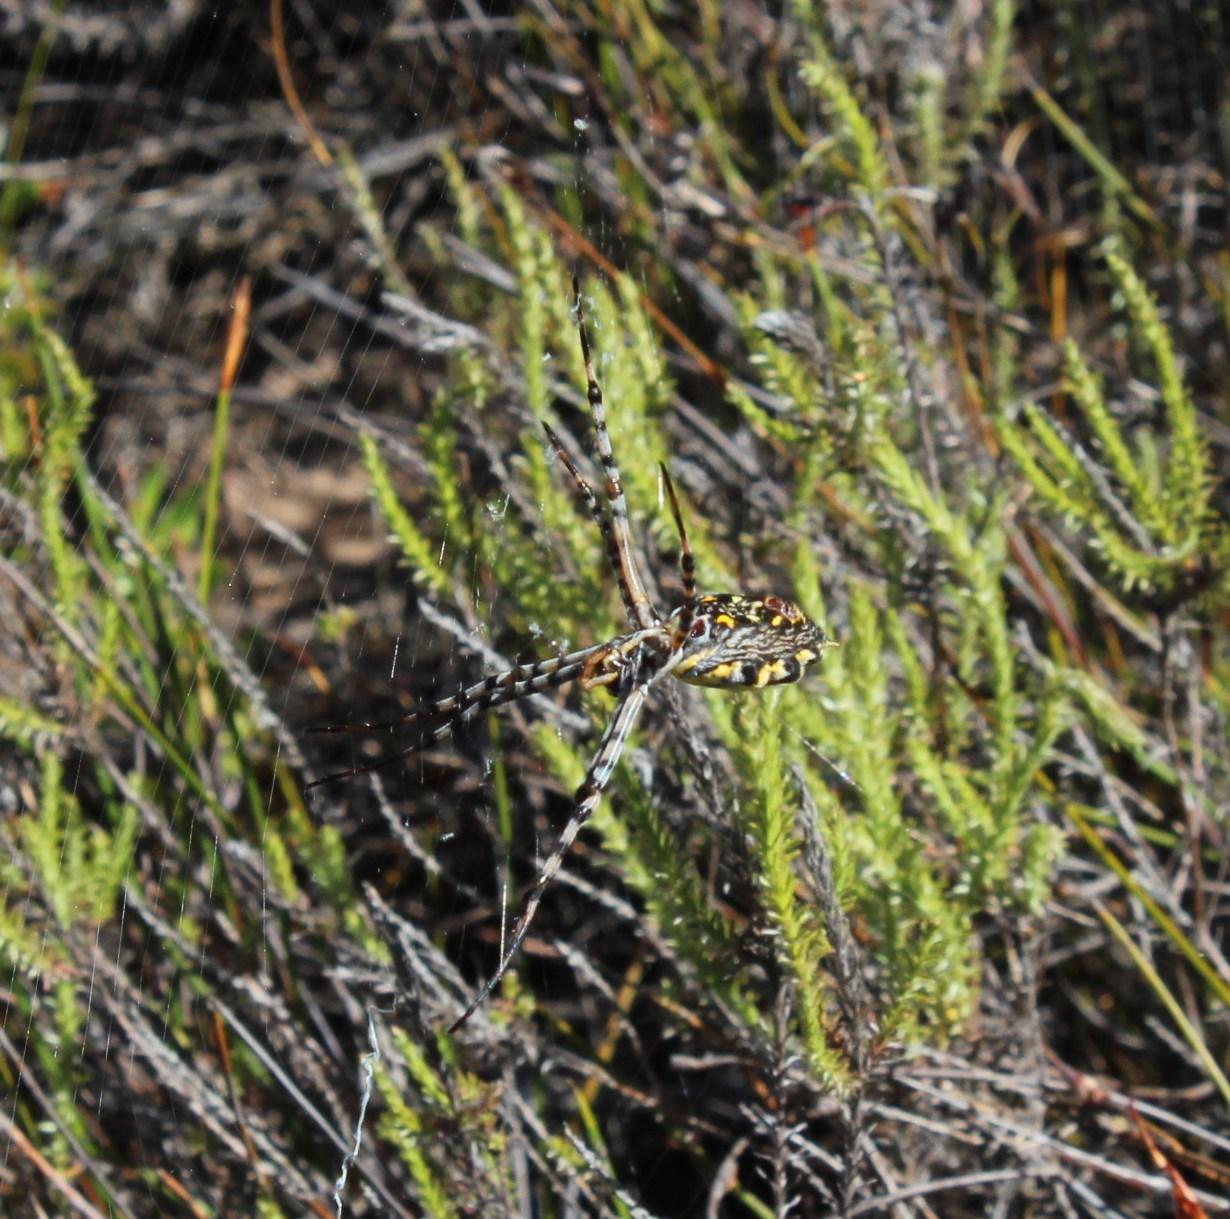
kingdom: Animalia
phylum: Arthropoda
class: Arachnida
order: Araneae
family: Araneidae
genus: Argiope
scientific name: Argiope australis
